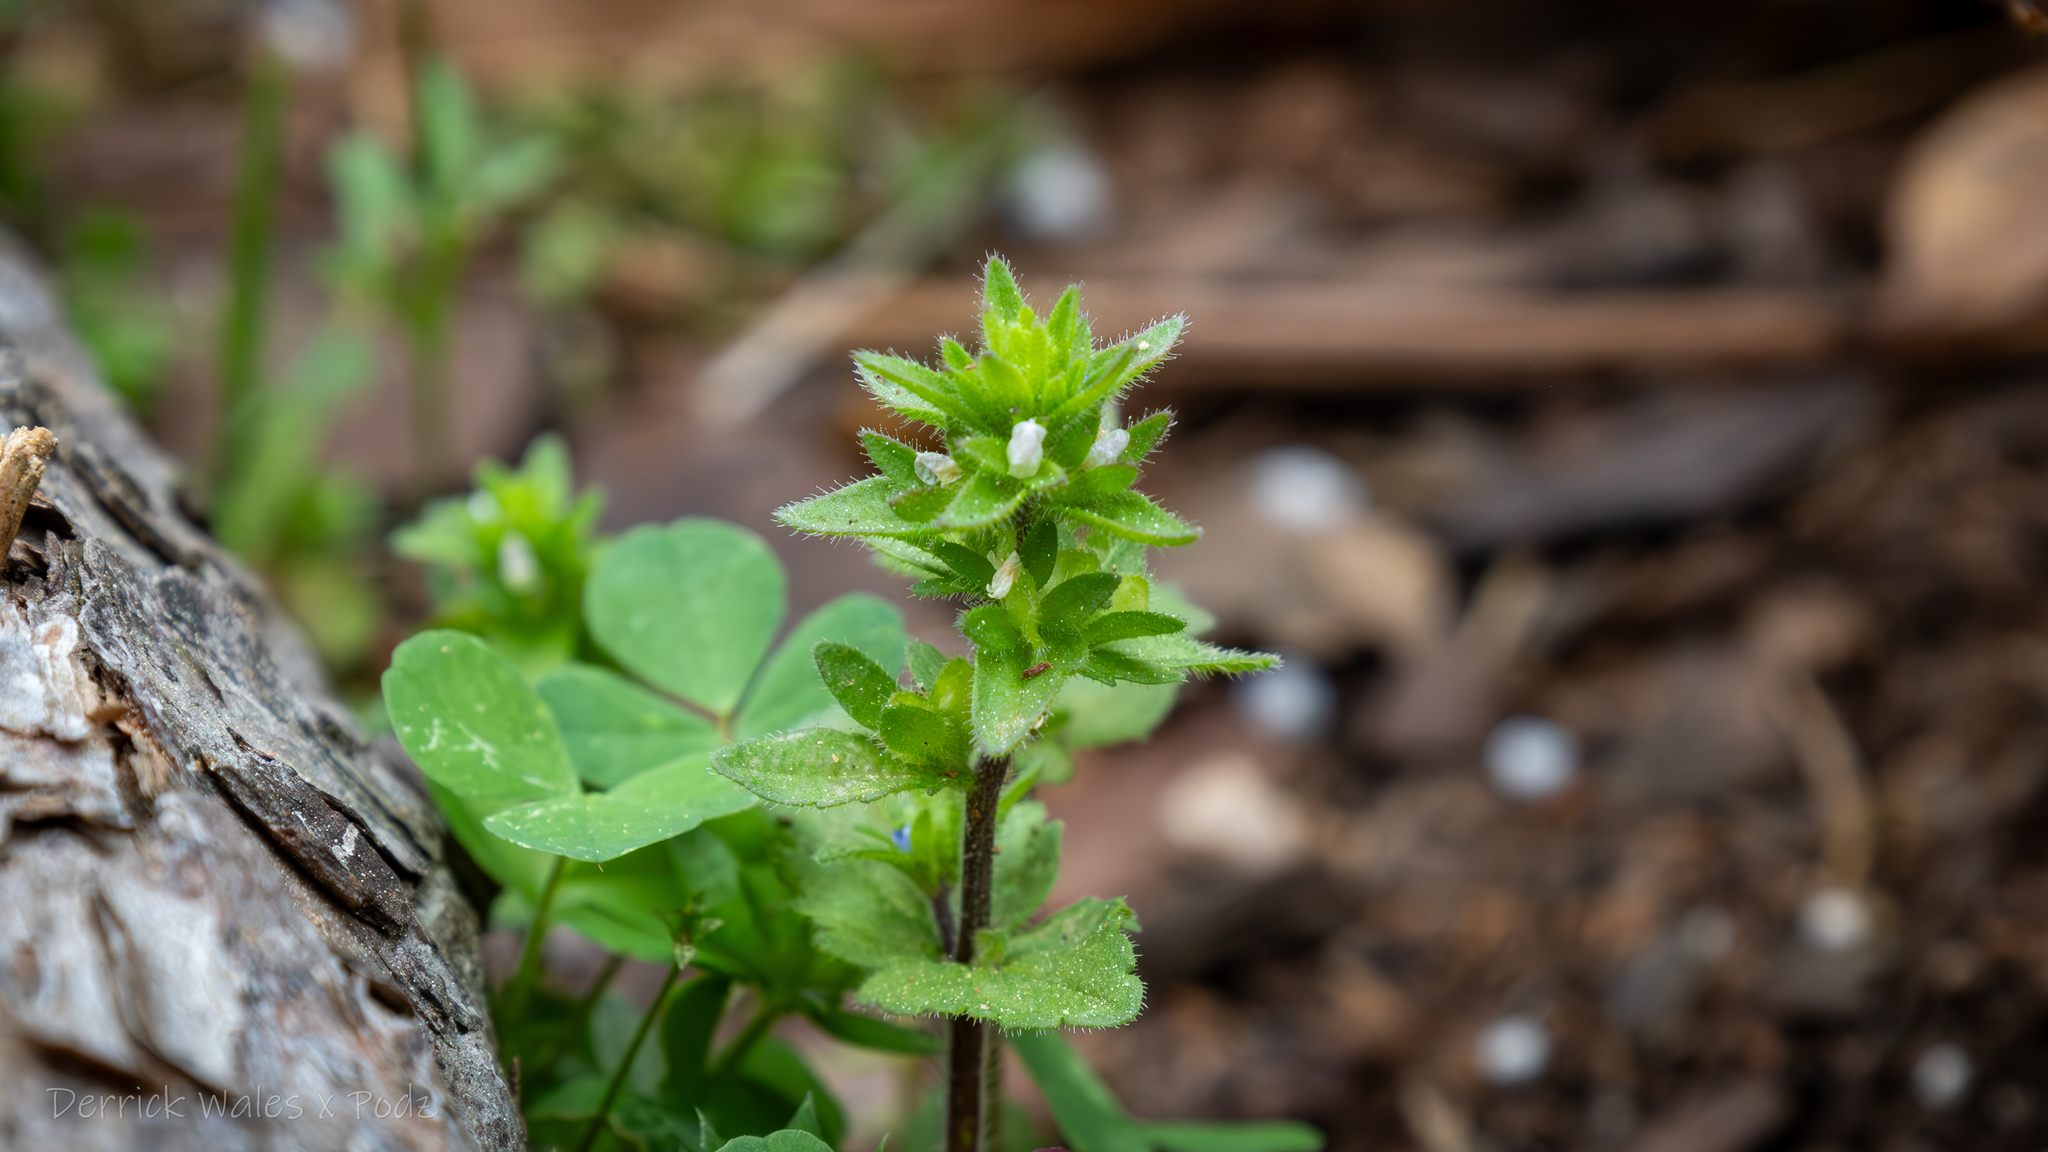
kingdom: Plantae
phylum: Tracheophyta
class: Magnoliopsida
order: Lamiales
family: Plantaginaceae
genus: Veronica
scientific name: Veronica arvensis
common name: Corn speedwell
